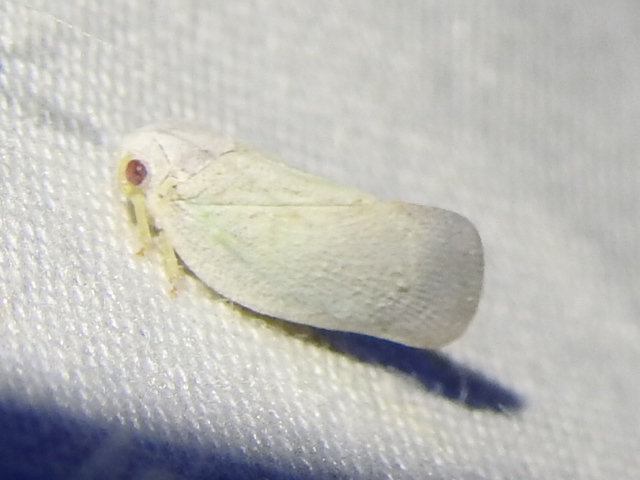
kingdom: Animalia
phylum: Arthropoda
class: Insecta
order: Hemiptera
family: Flatidae
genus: Flatormenis
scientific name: Flatormenis saucia
